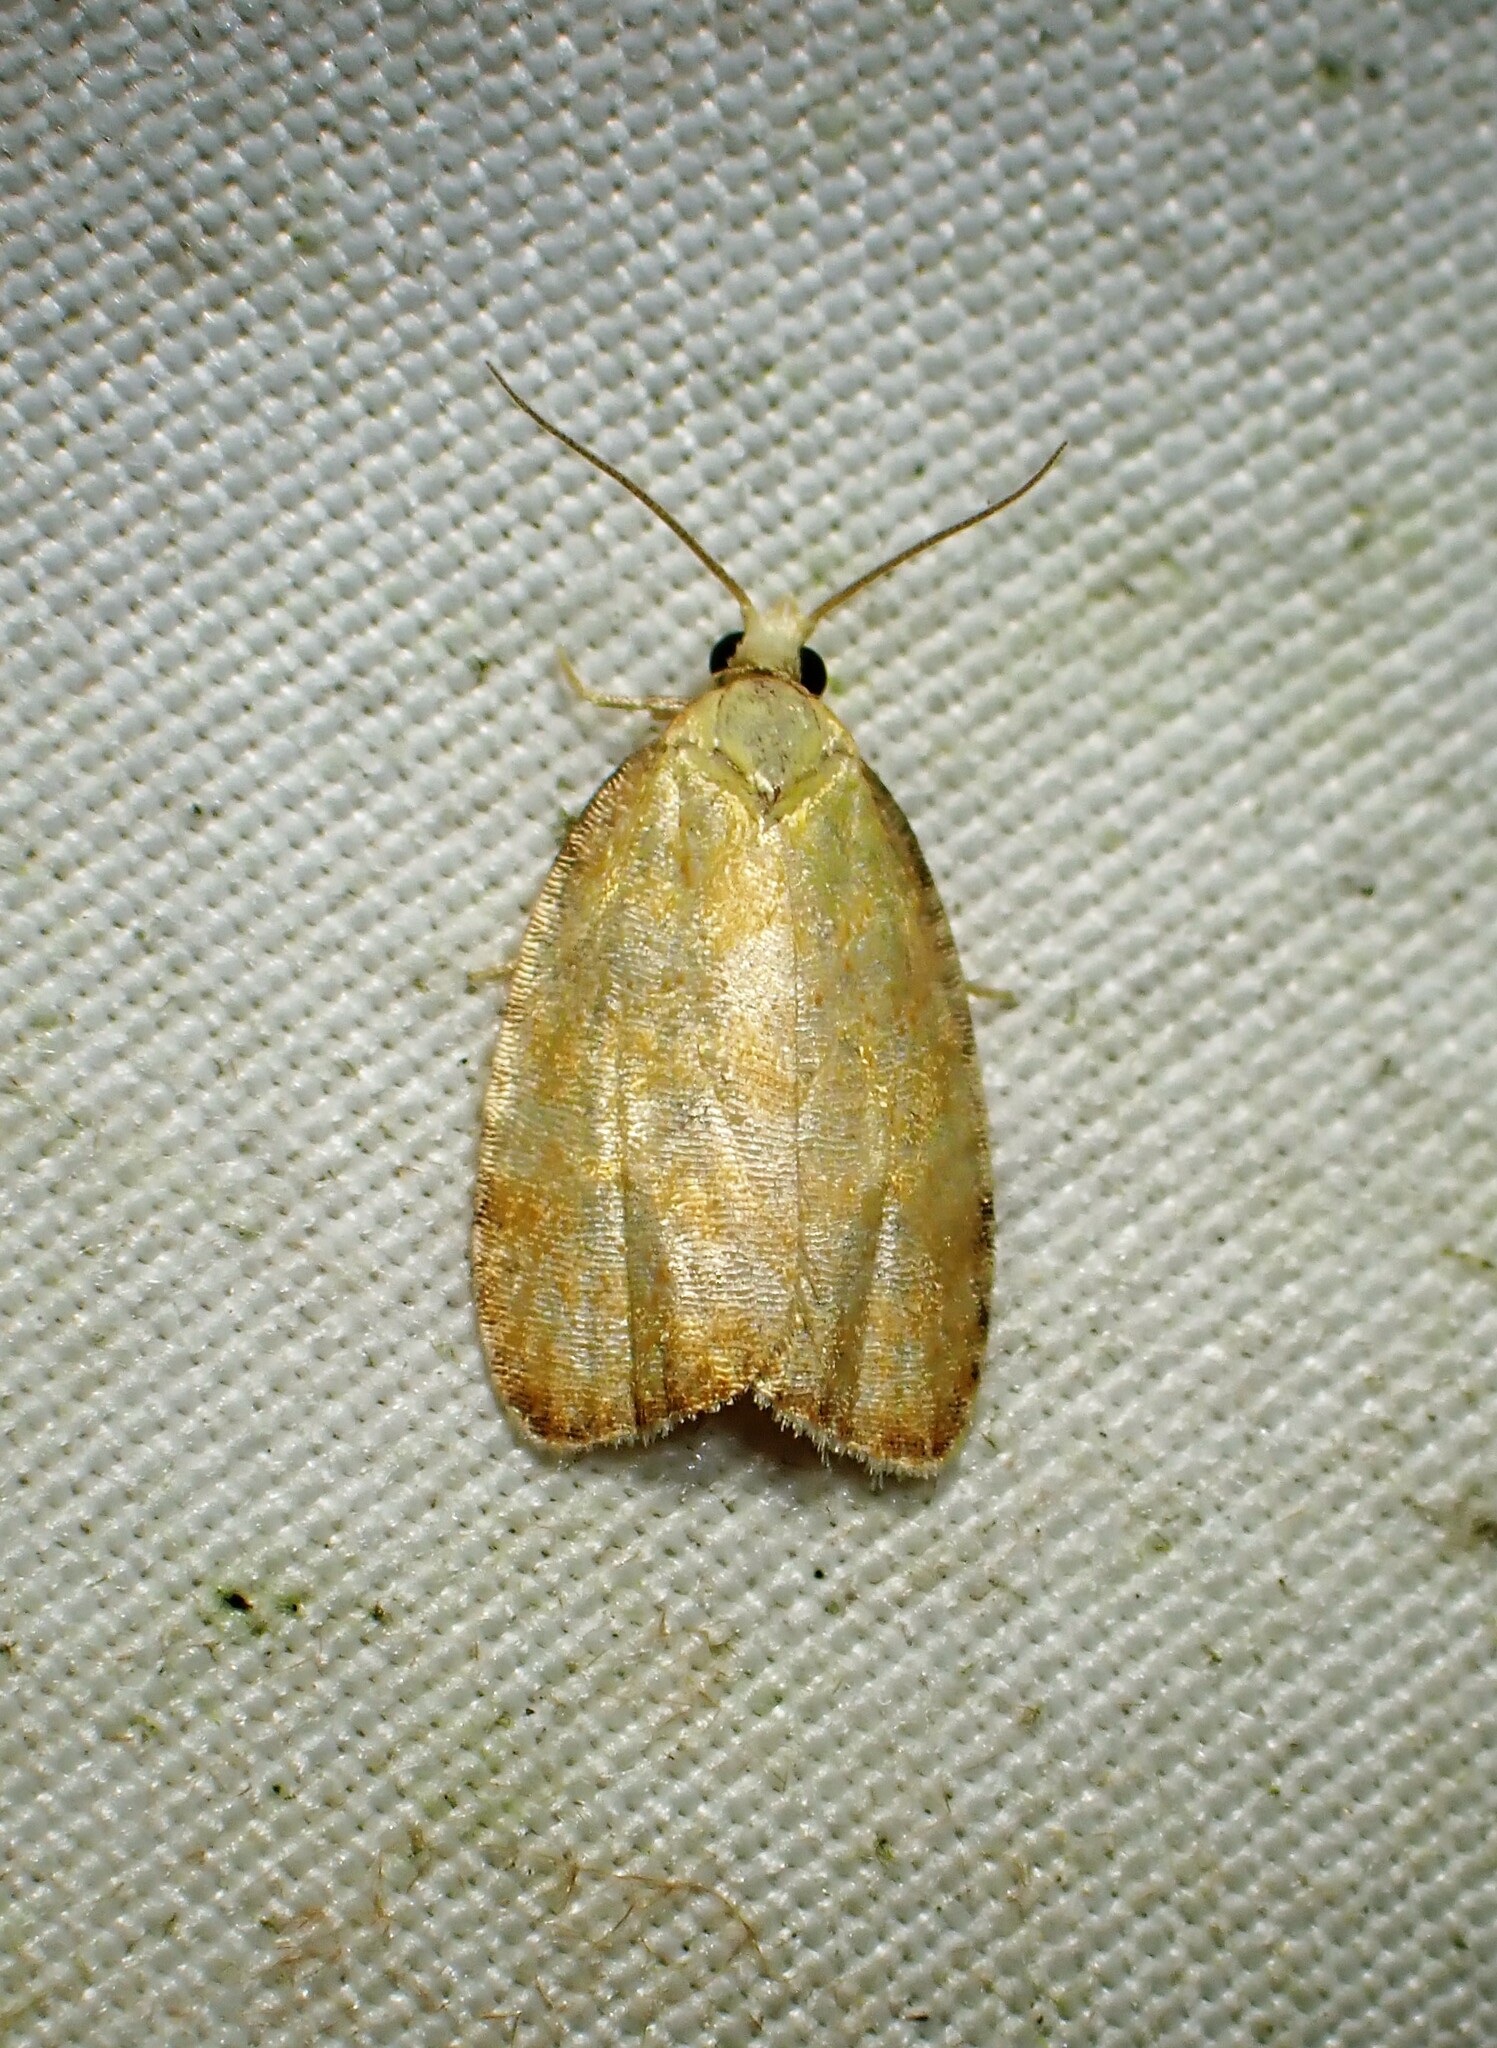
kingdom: Animalia
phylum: Arthropoda
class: Insecta
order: Lepidoptera
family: Tortricidae
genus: Acleris
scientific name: Acleris curvalana
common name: Blueberry leaftier moth
